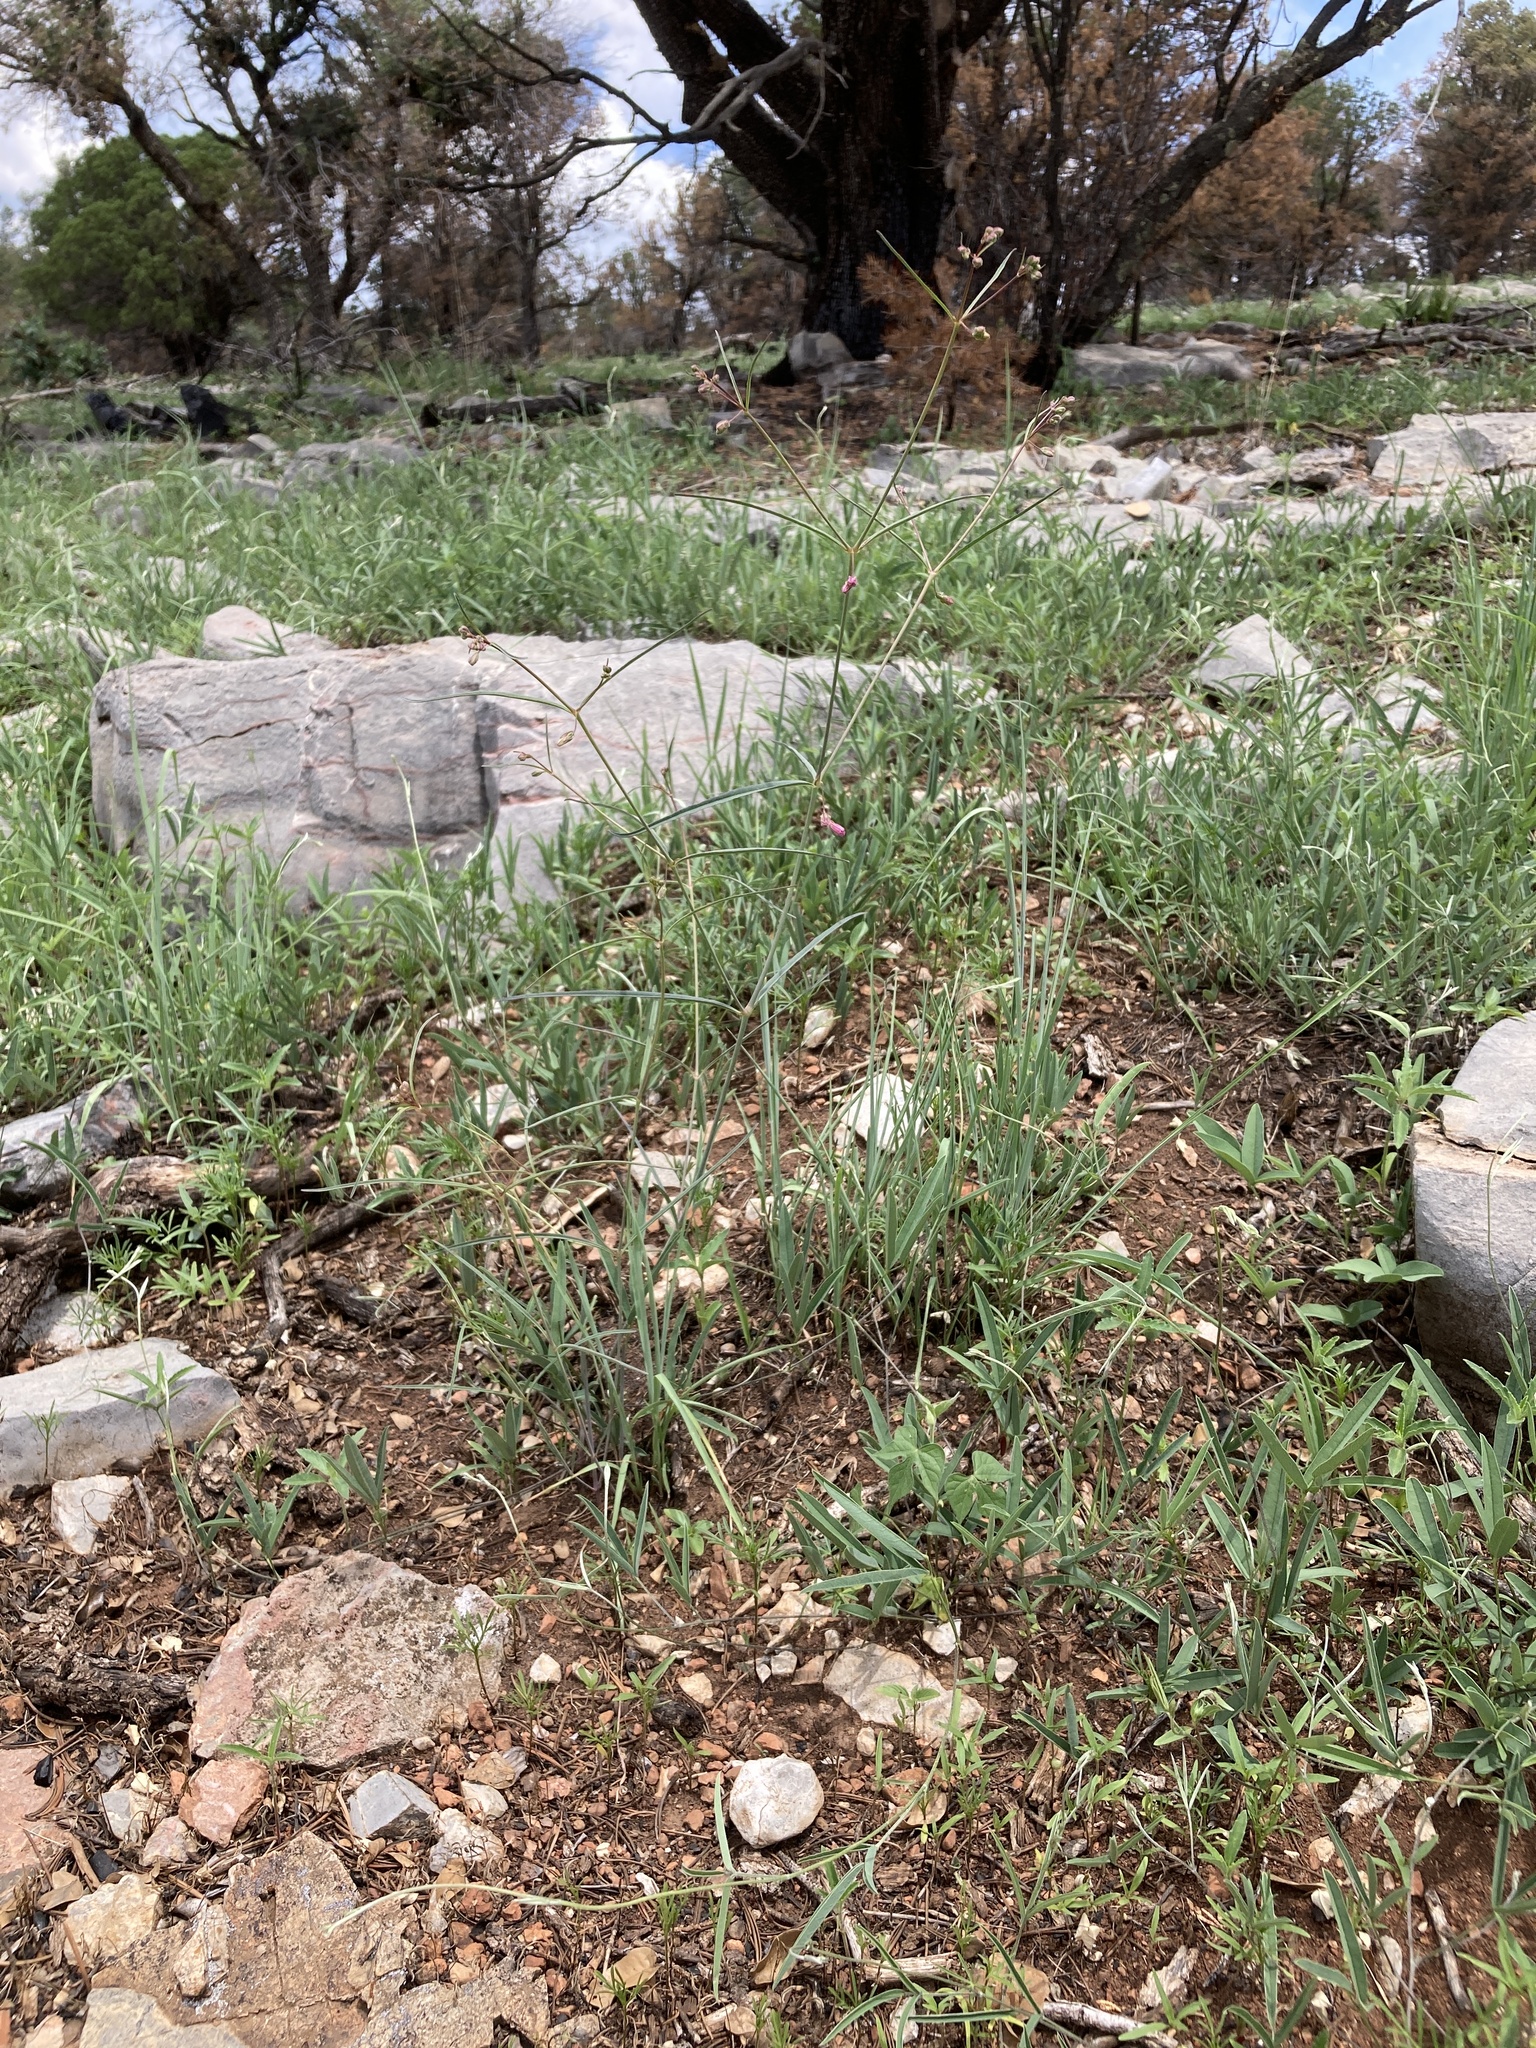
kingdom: Plantae
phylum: Tracheophyta
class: Magnoliopsida
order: Caryophyllales
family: Nyctaginaceae
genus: Mirabilis
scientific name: Mirabilis coccinea
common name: Scarlet four-o'clock
